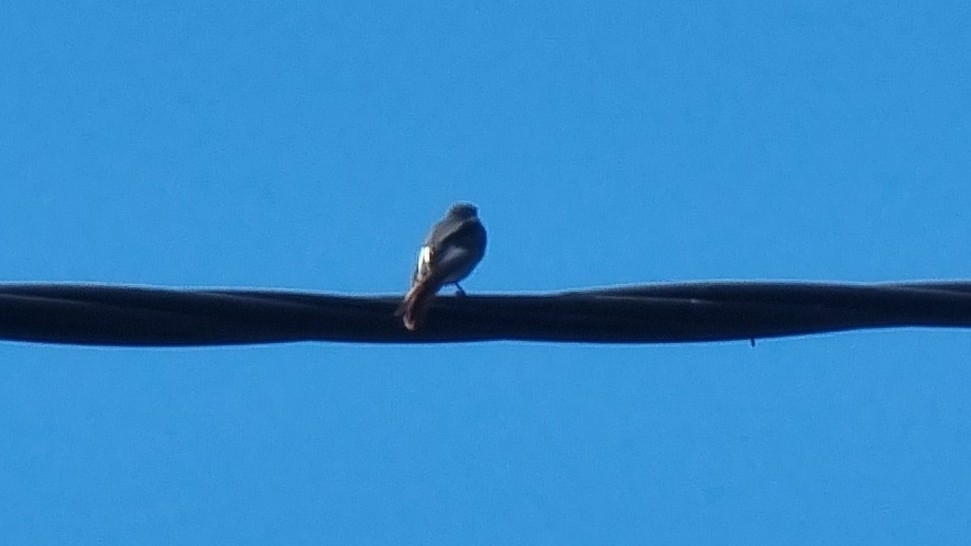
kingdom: Animalia
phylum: Chordata
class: Aves
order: Passeriformes
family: Muscicapidae
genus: Phoenicurus
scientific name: Phoenicurus ochruros
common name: Black redstart
